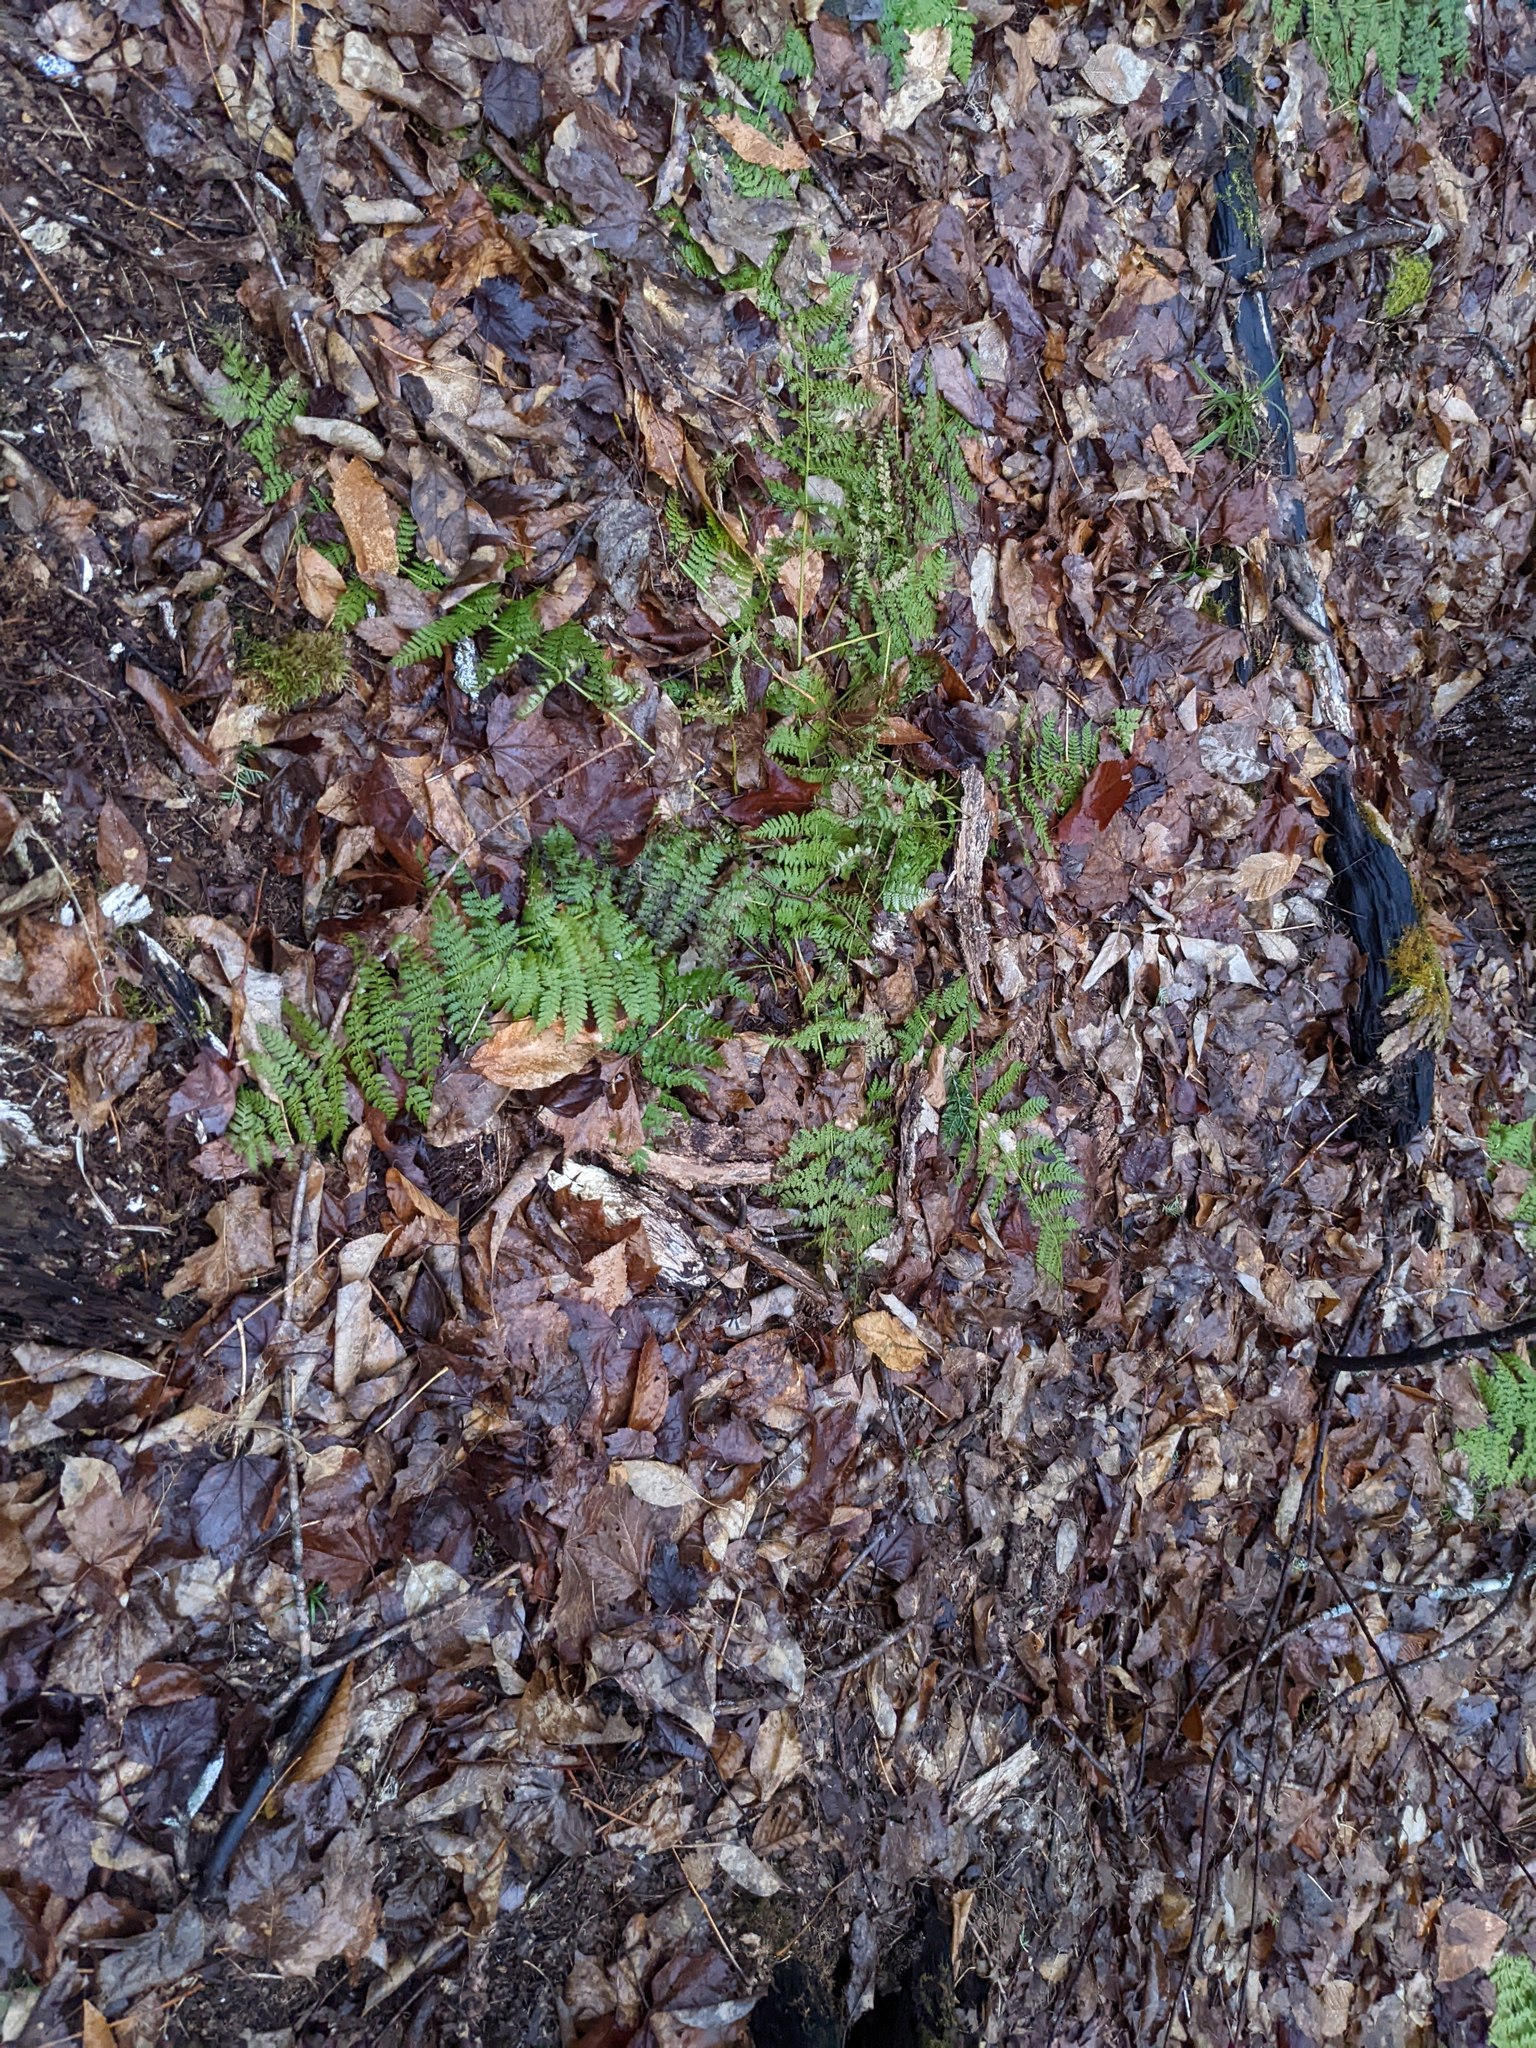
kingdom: Plantae
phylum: Tracheophyta
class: Polypodiopsida
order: Polypodiales
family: Dryopteridaceae
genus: Dryopteris
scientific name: Dryopteris intermedia
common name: Evergreen wood fern
